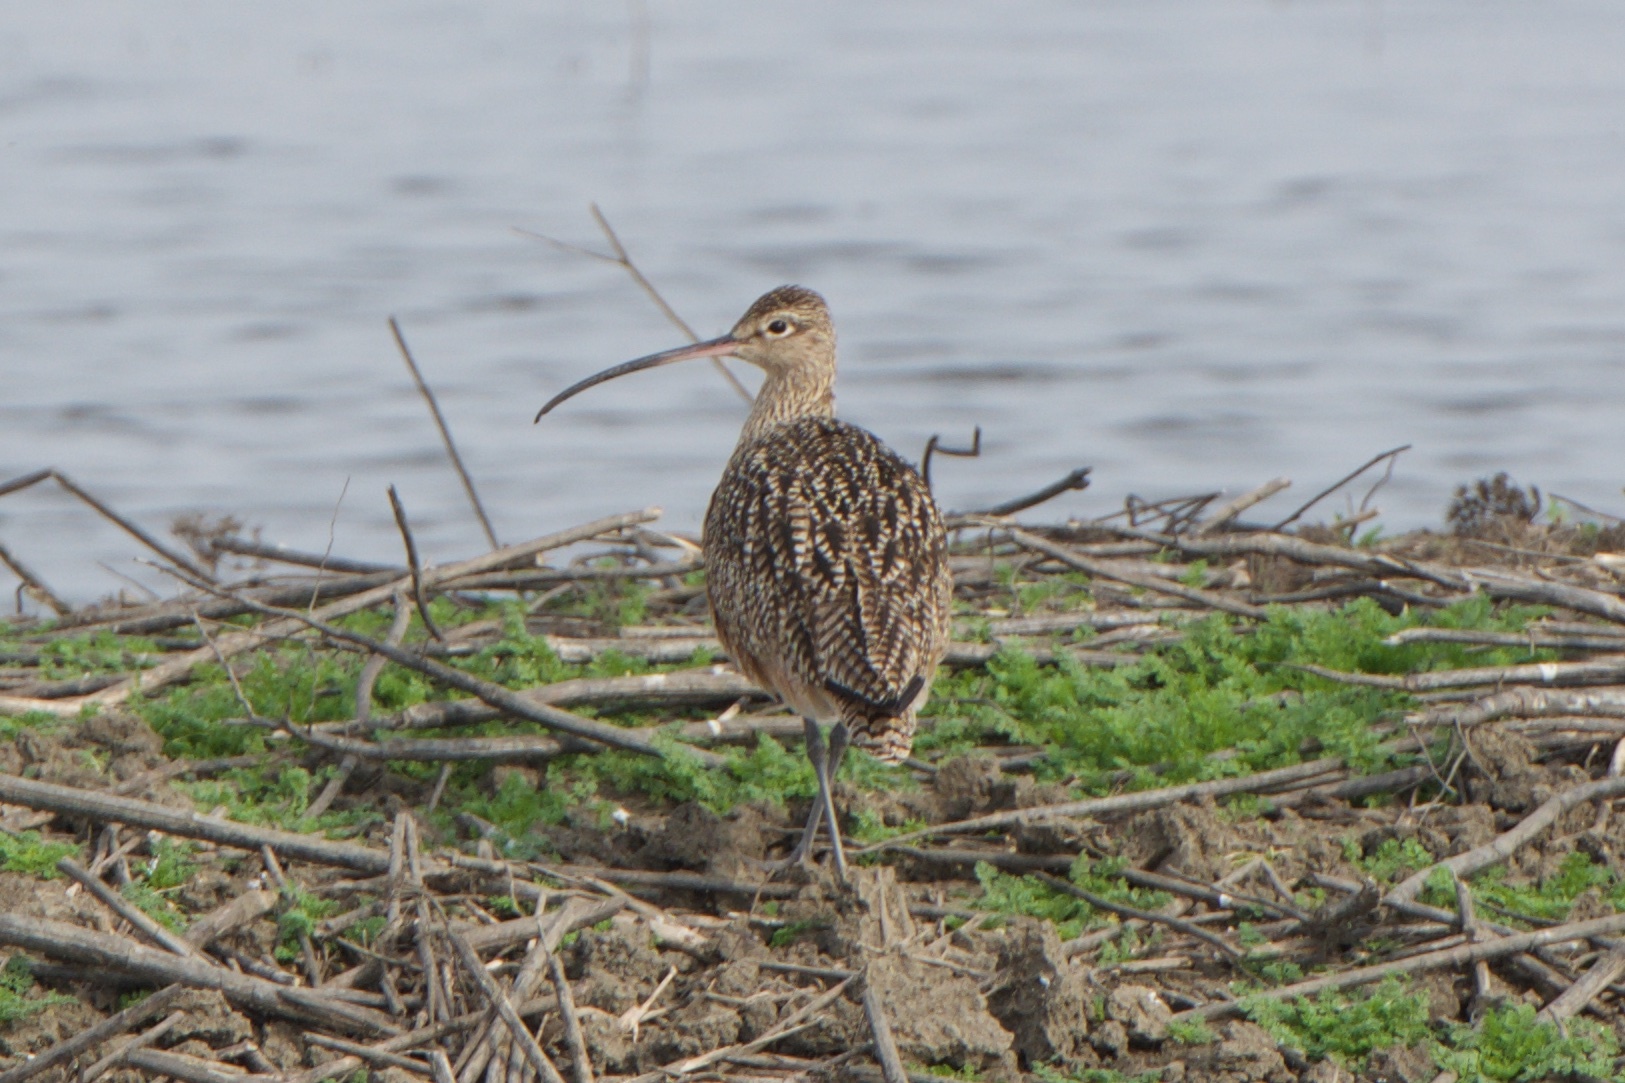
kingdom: Animalia
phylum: Chordata
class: Aves
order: Charadriiformes
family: Scolopacidae
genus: Numenius
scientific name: Numenius americanus
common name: Long-billed curlew
